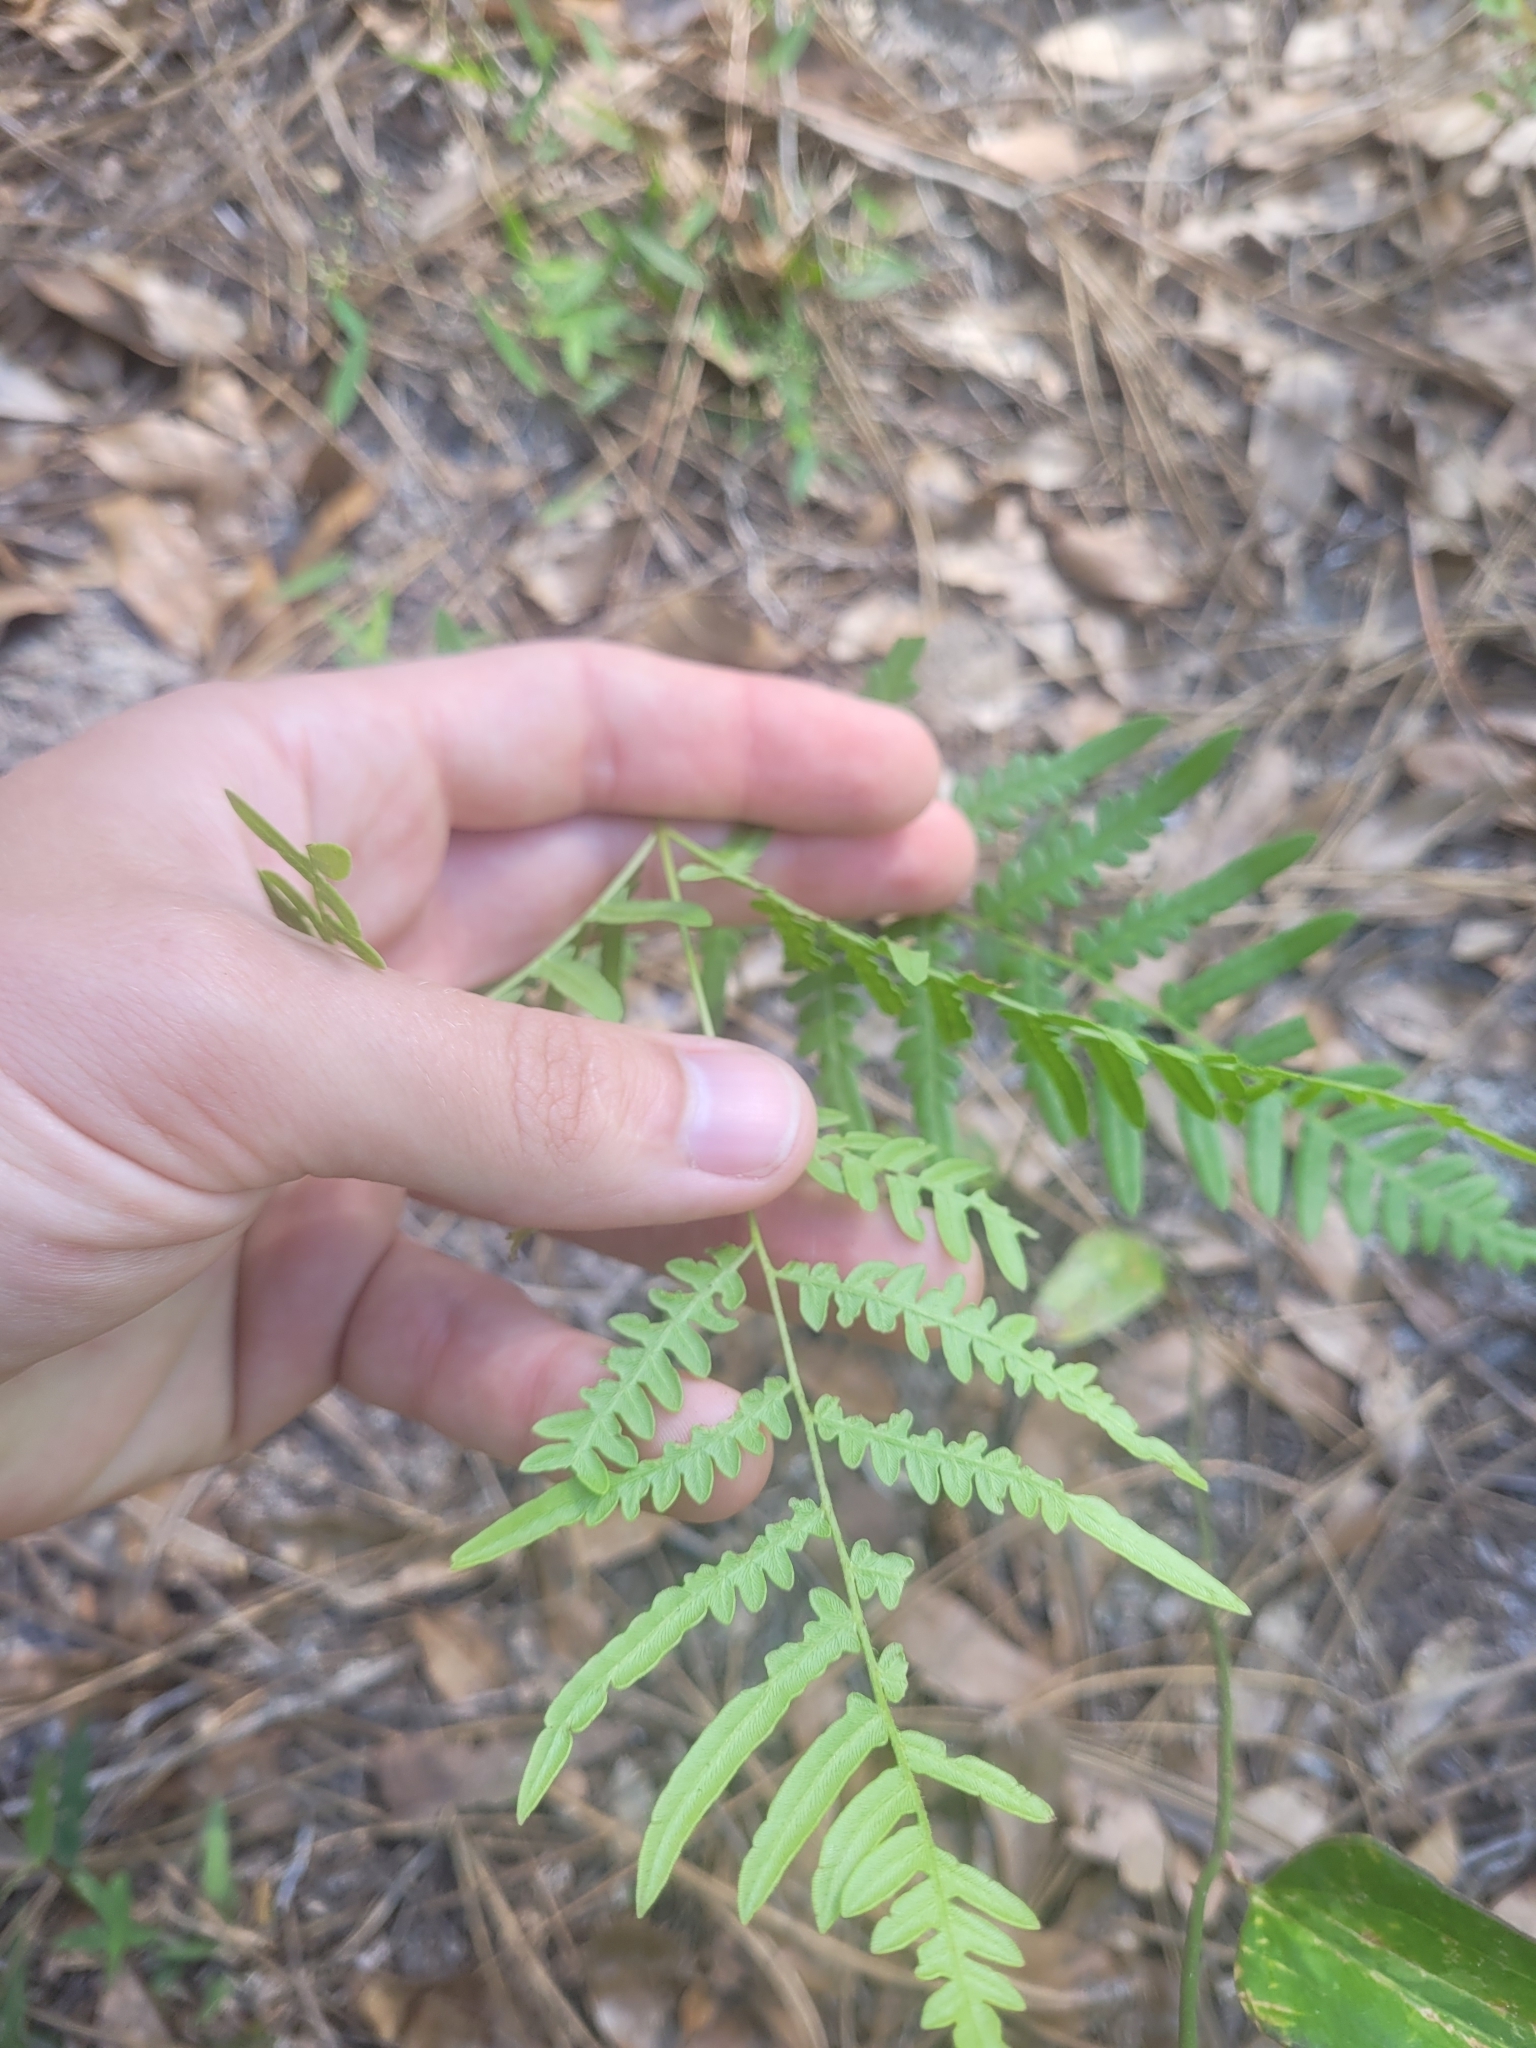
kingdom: Plantae
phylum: Tracheophyta
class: Polypodiopsida
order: Polypodiales
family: Dennstaedtiaceae
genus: Pteridium
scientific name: Pteridium
